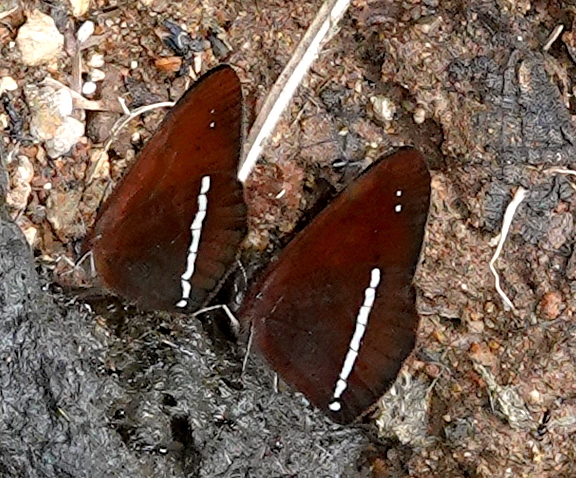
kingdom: Animalia
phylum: Arthropoda
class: Insecta
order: Lepidoptera
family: Nymphalidae
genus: Lymanopoda
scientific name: Lymanopoda albocincta
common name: White-banded mountain satyr
